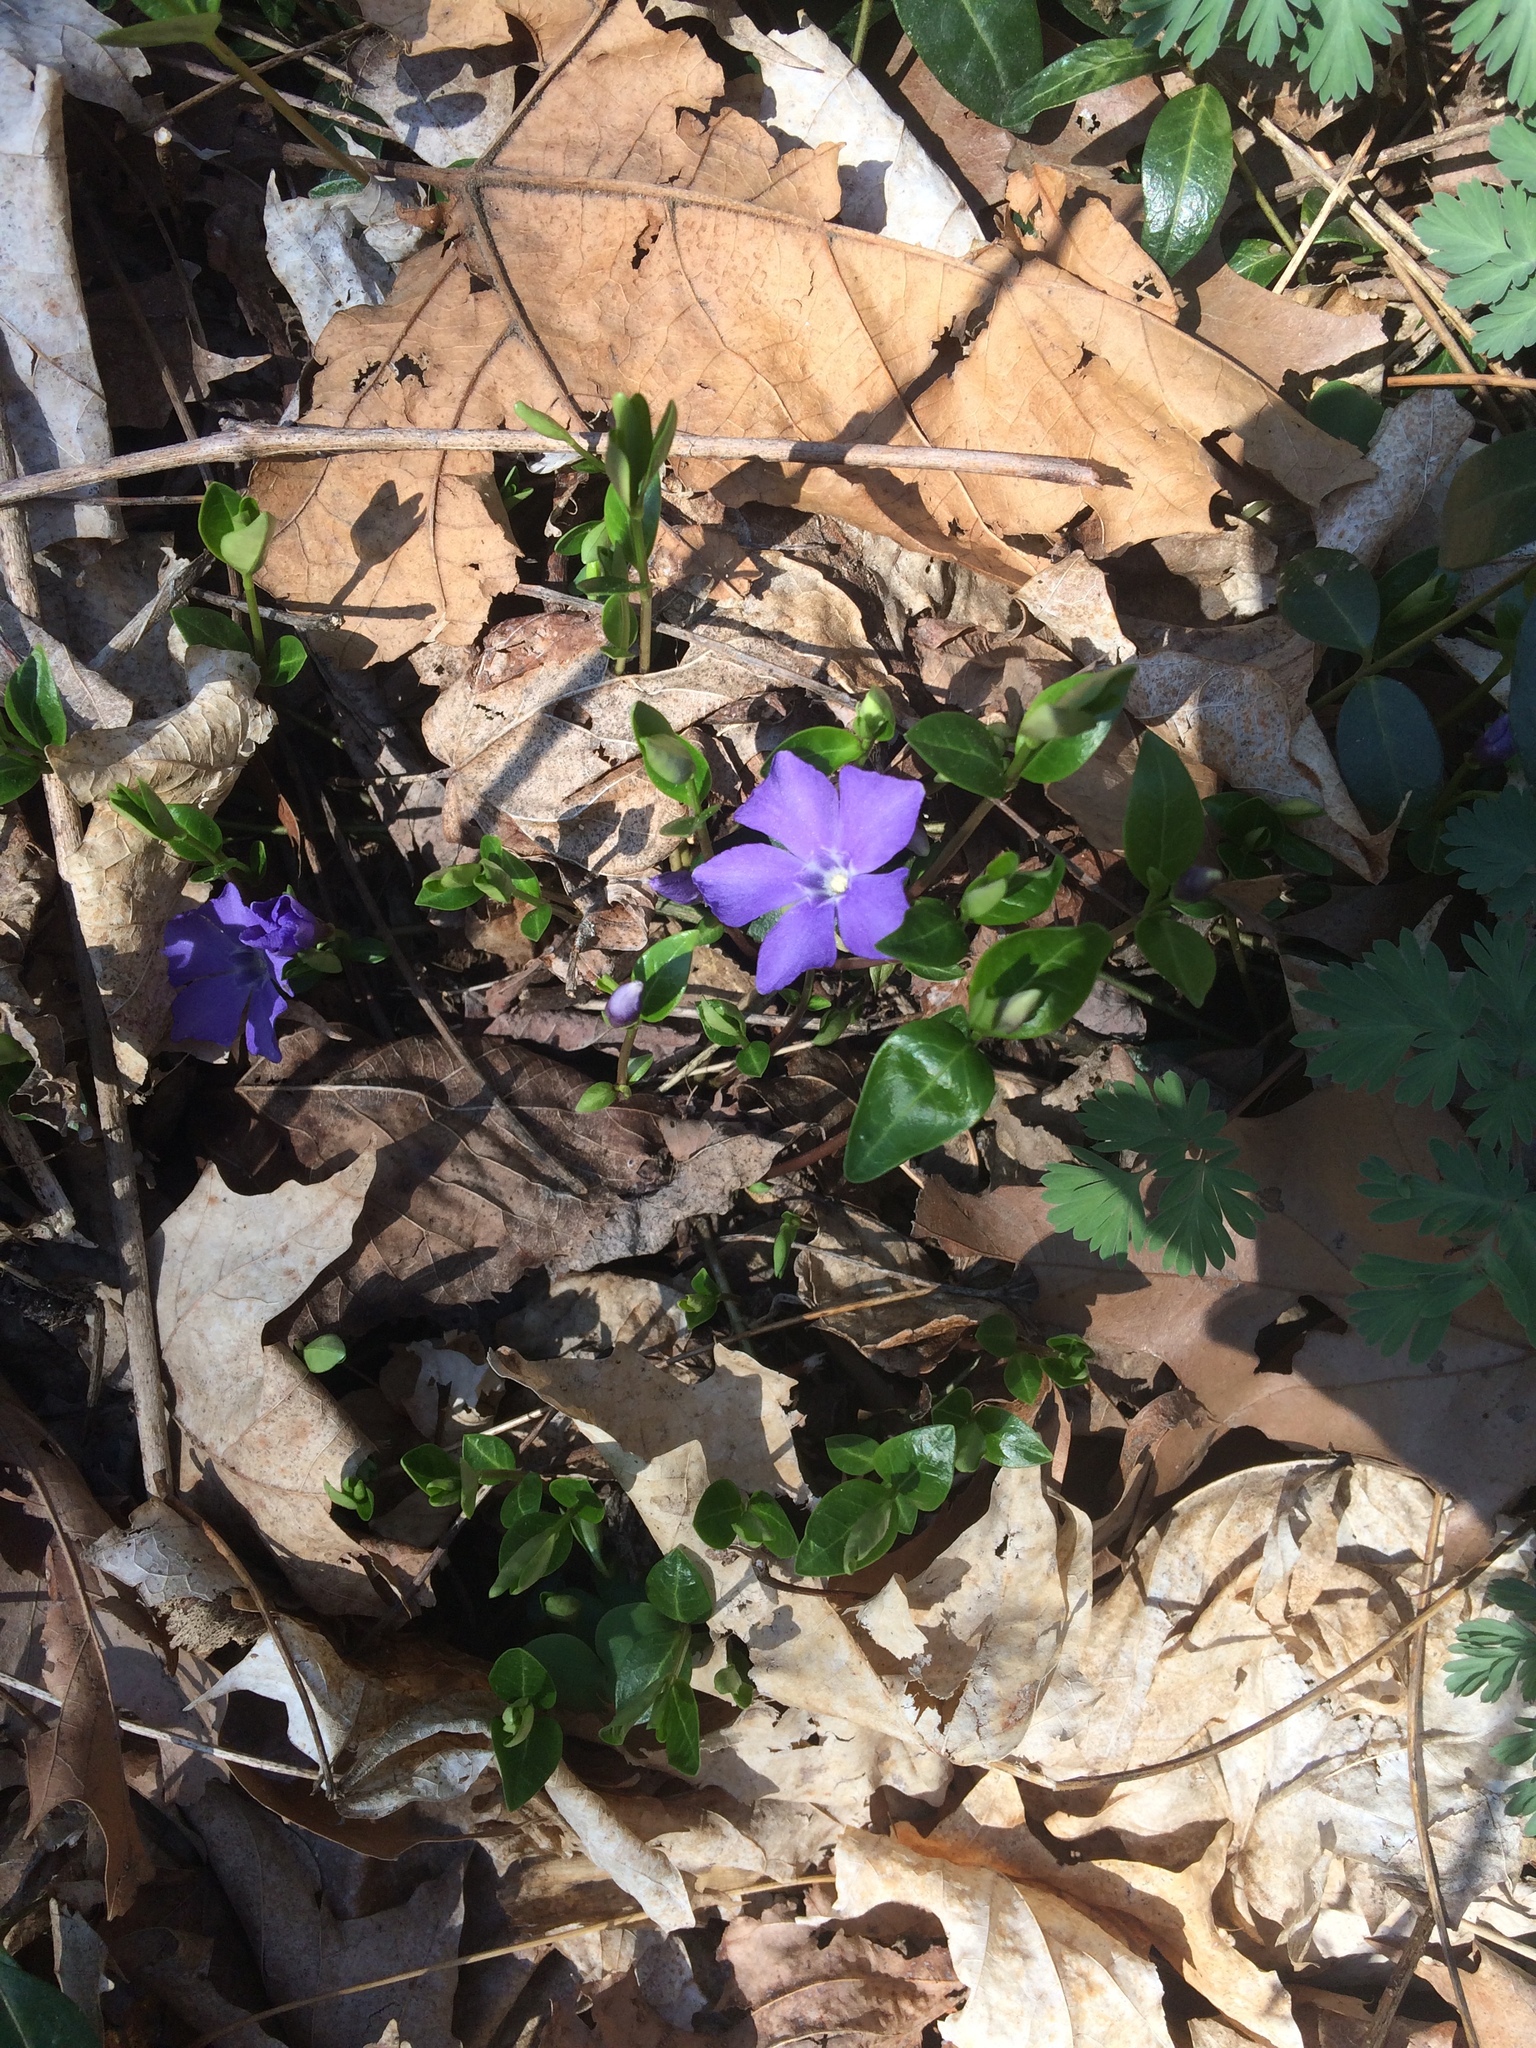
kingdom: Plantae
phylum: Tracheophyta
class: Magnoliopsida
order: Gentianales
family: Apocynaceae
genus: Vinca
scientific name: Vinca minor
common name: Lesser periwinkle
